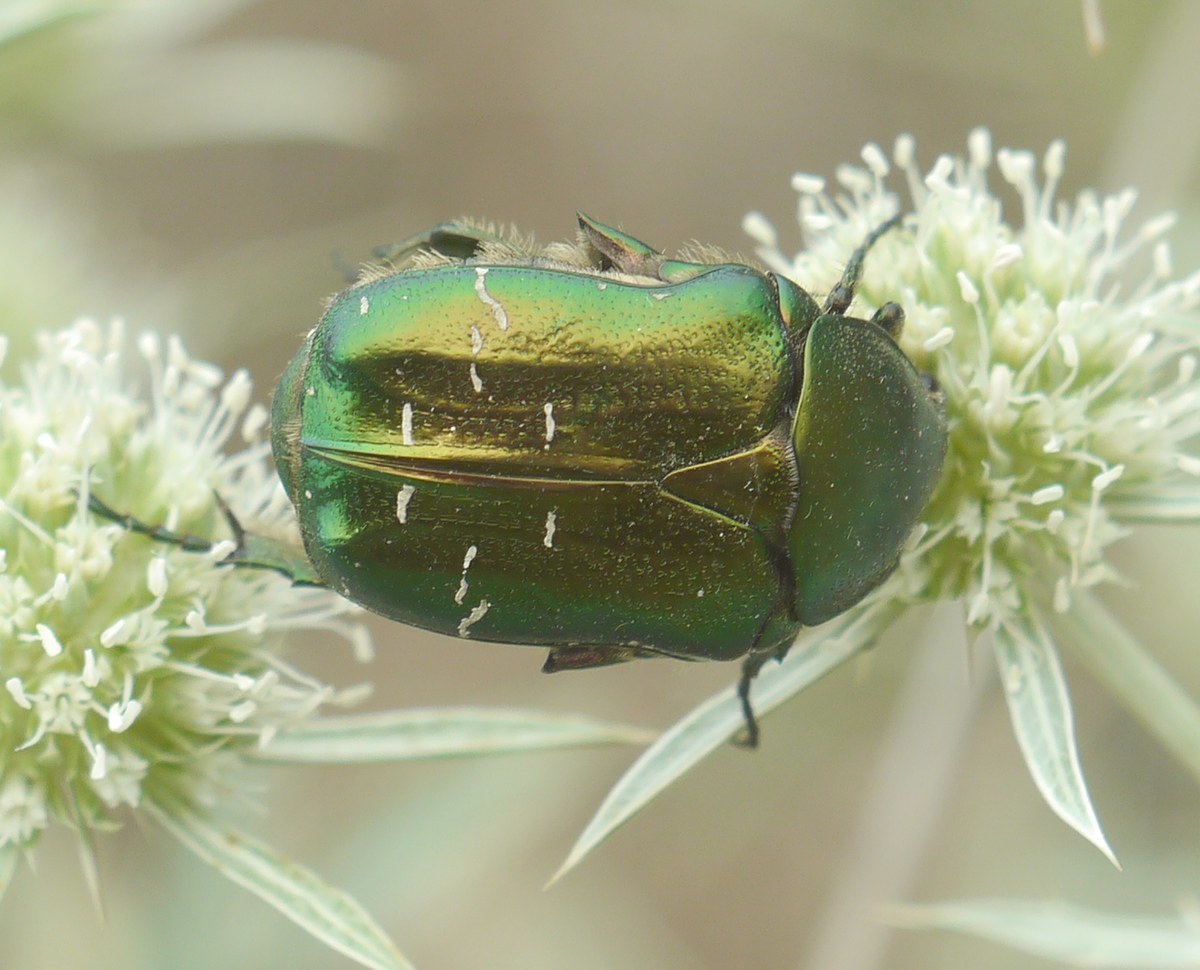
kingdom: Animalia
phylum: Arthropoda
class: Insecta
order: Coleoptera
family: Scarabaeidae
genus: Cetonia
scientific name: Cetonia aurata
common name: Rose chafer
